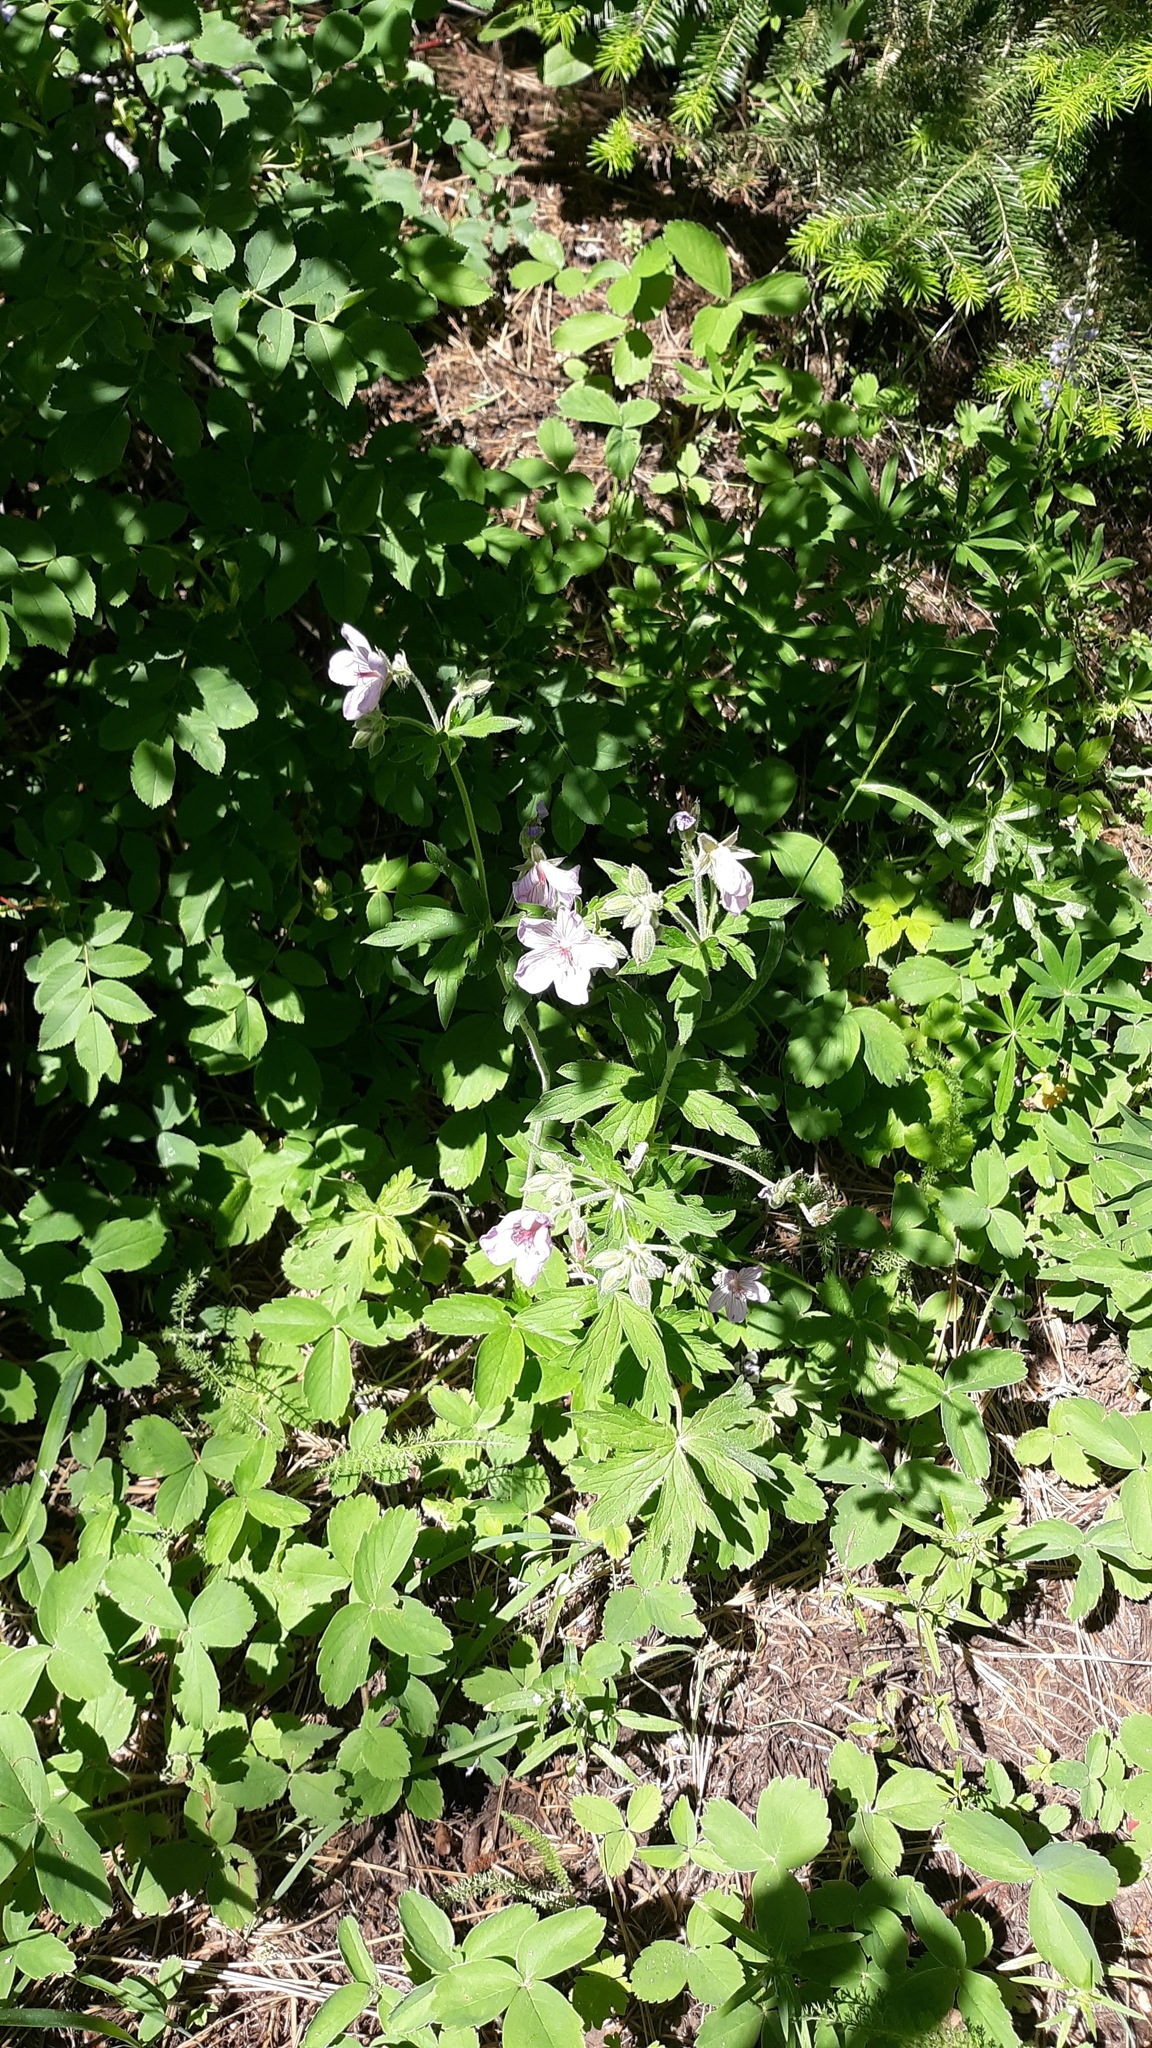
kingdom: Plantae
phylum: Tracheophyta
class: Magnoliopsida
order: Geraniales
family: Geraniaceae
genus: Geranium
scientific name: Geranium viscosissimum
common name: Purple geranium
